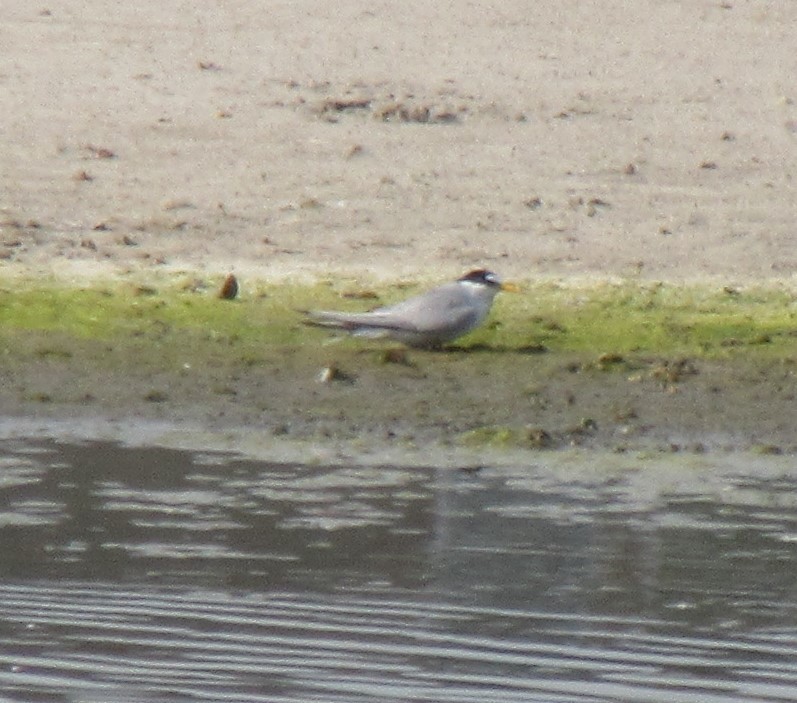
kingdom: Animalia
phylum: Chordata
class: Aves
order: Charadriiformes
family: Laridae
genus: Sternula
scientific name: Sternula antillarum
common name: Least tern
